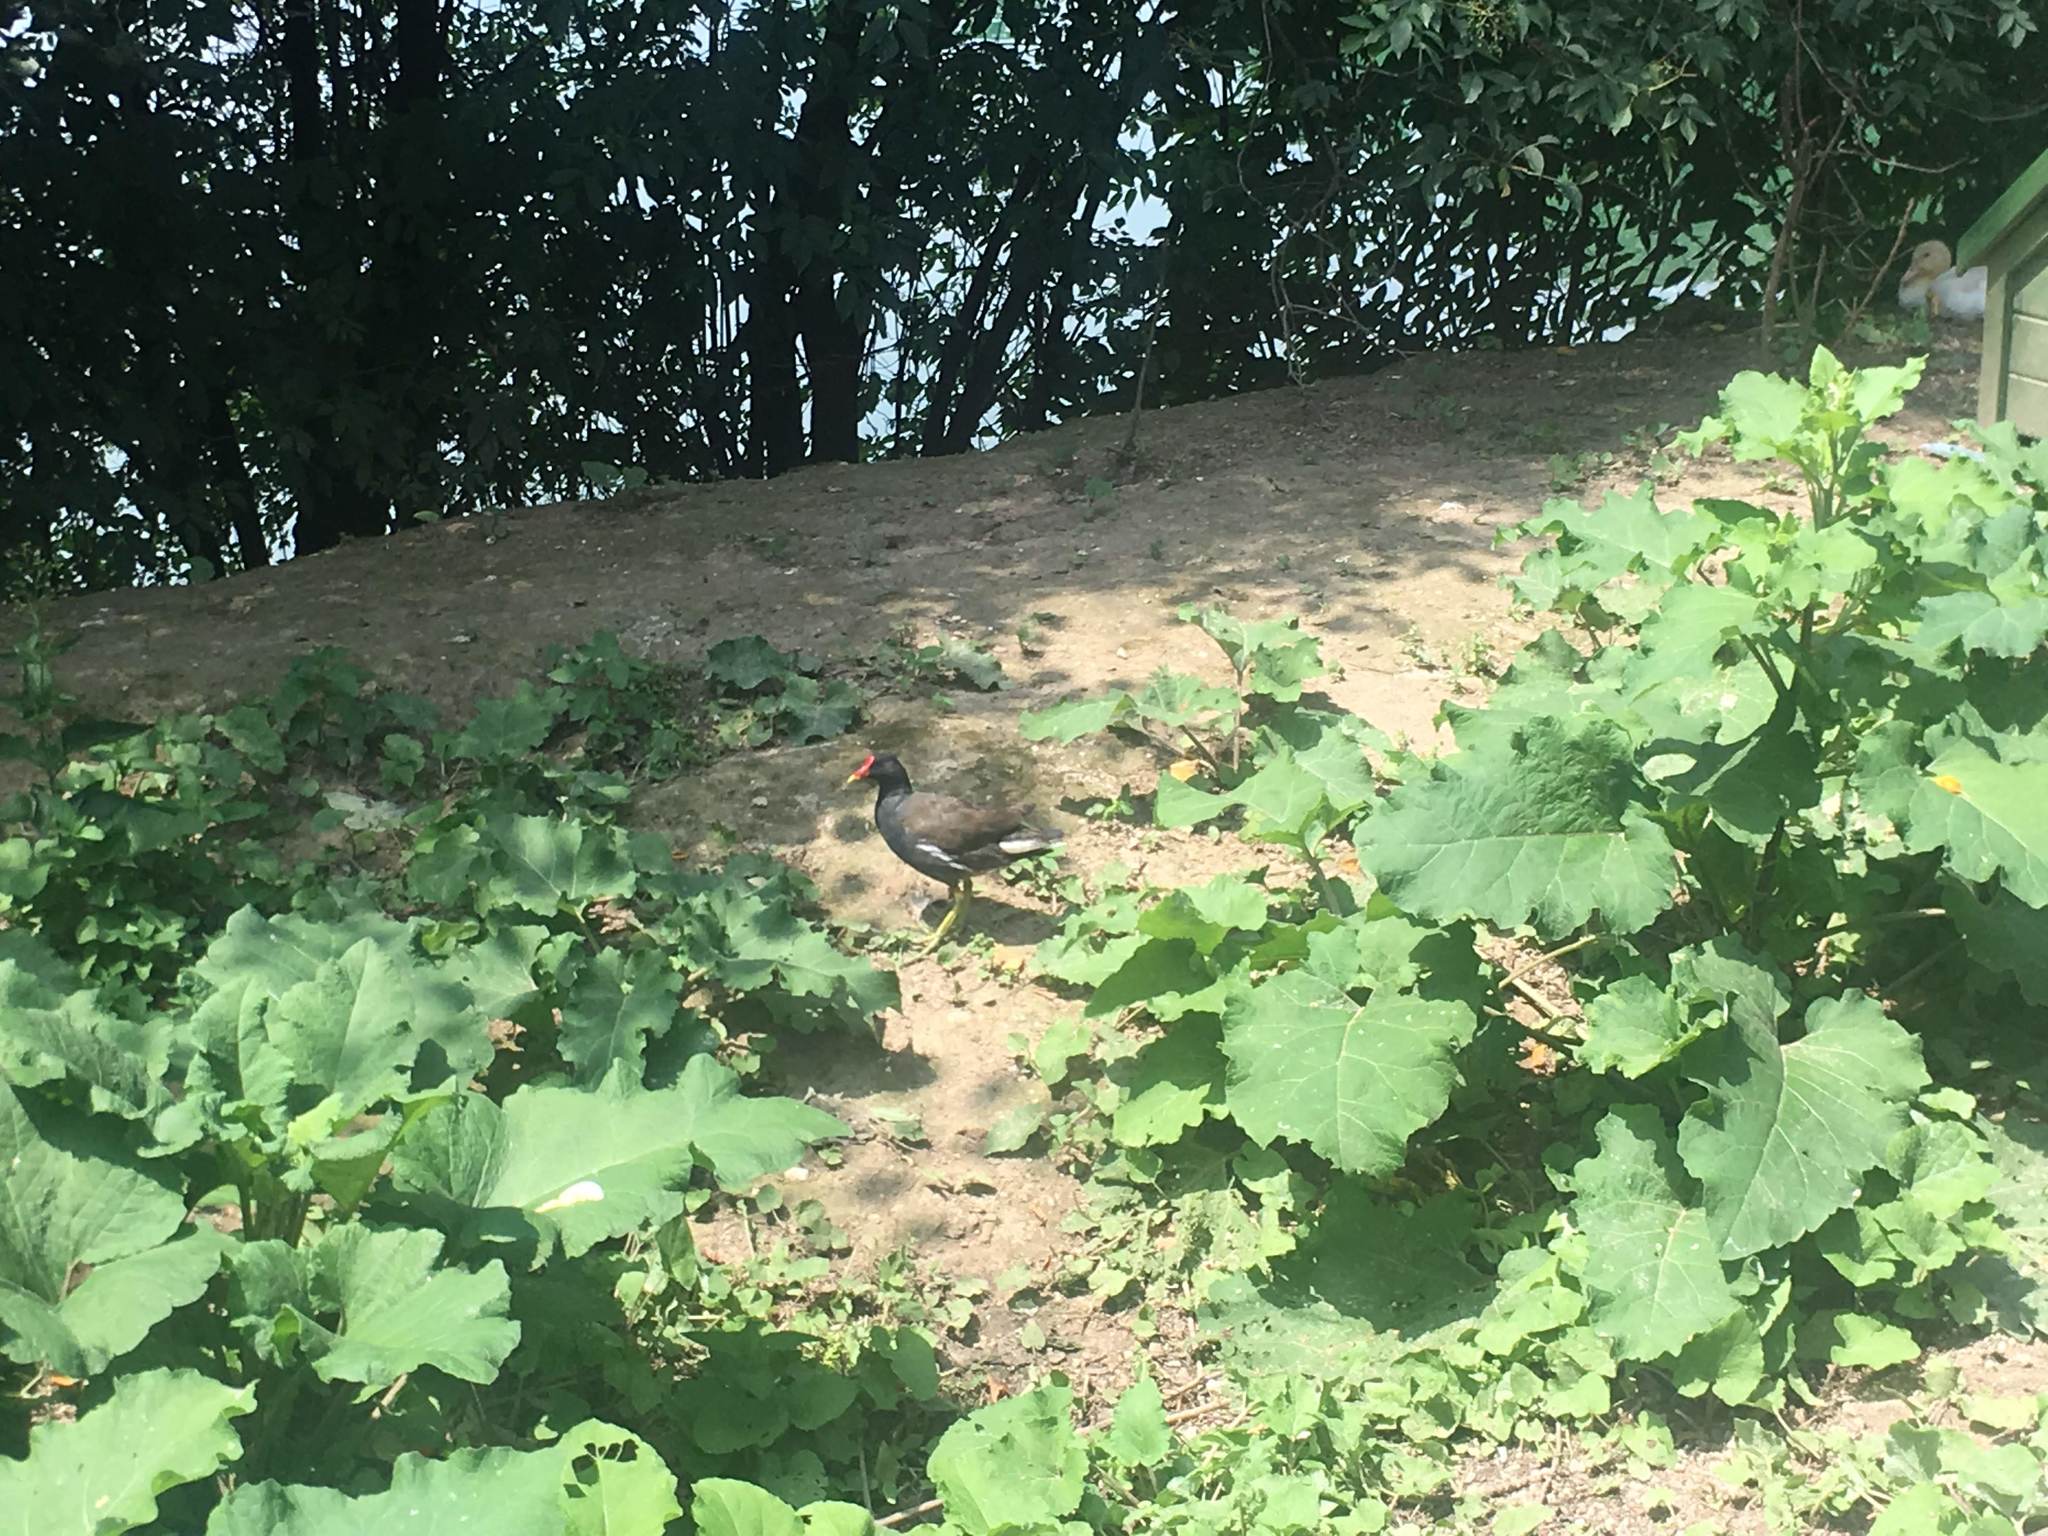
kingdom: Animalia
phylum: Chordata
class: Aves
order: Gruiformes
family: Rallidae
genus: Gallinula
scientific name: Gallinula chloropus
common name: Common moorhen
